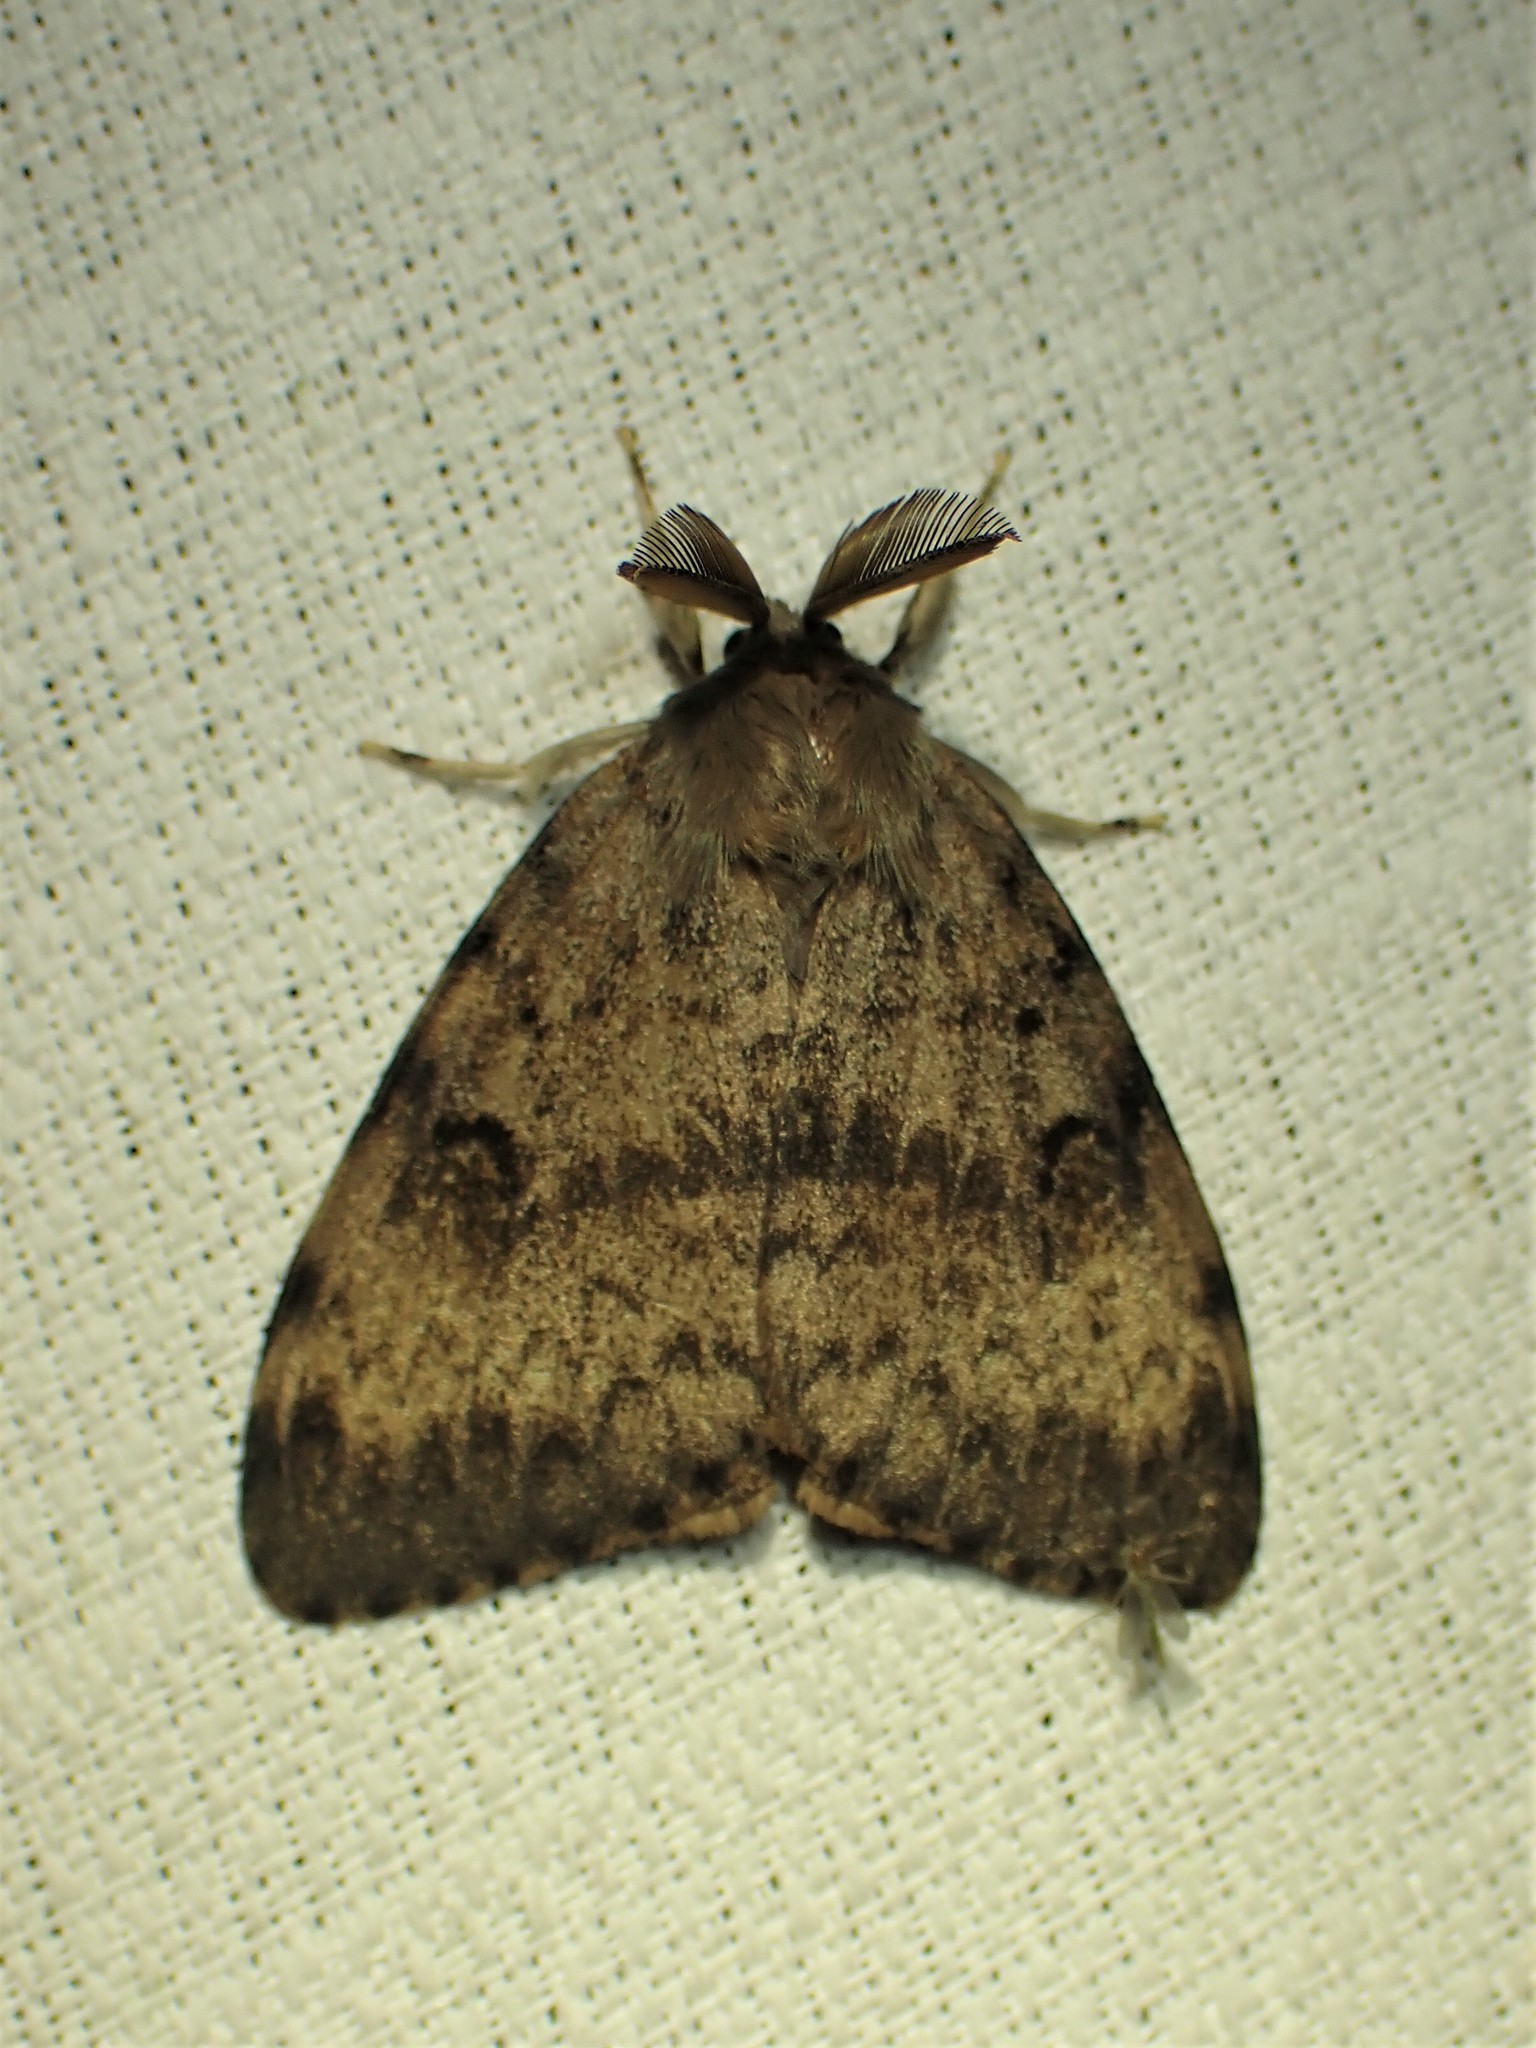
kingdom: Animalia
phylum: Arthropoda
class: Insecta
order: Lepidoptera
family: Erebidae
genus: Lymantria
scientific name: Lymantria dispar
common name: Gypsy moth
